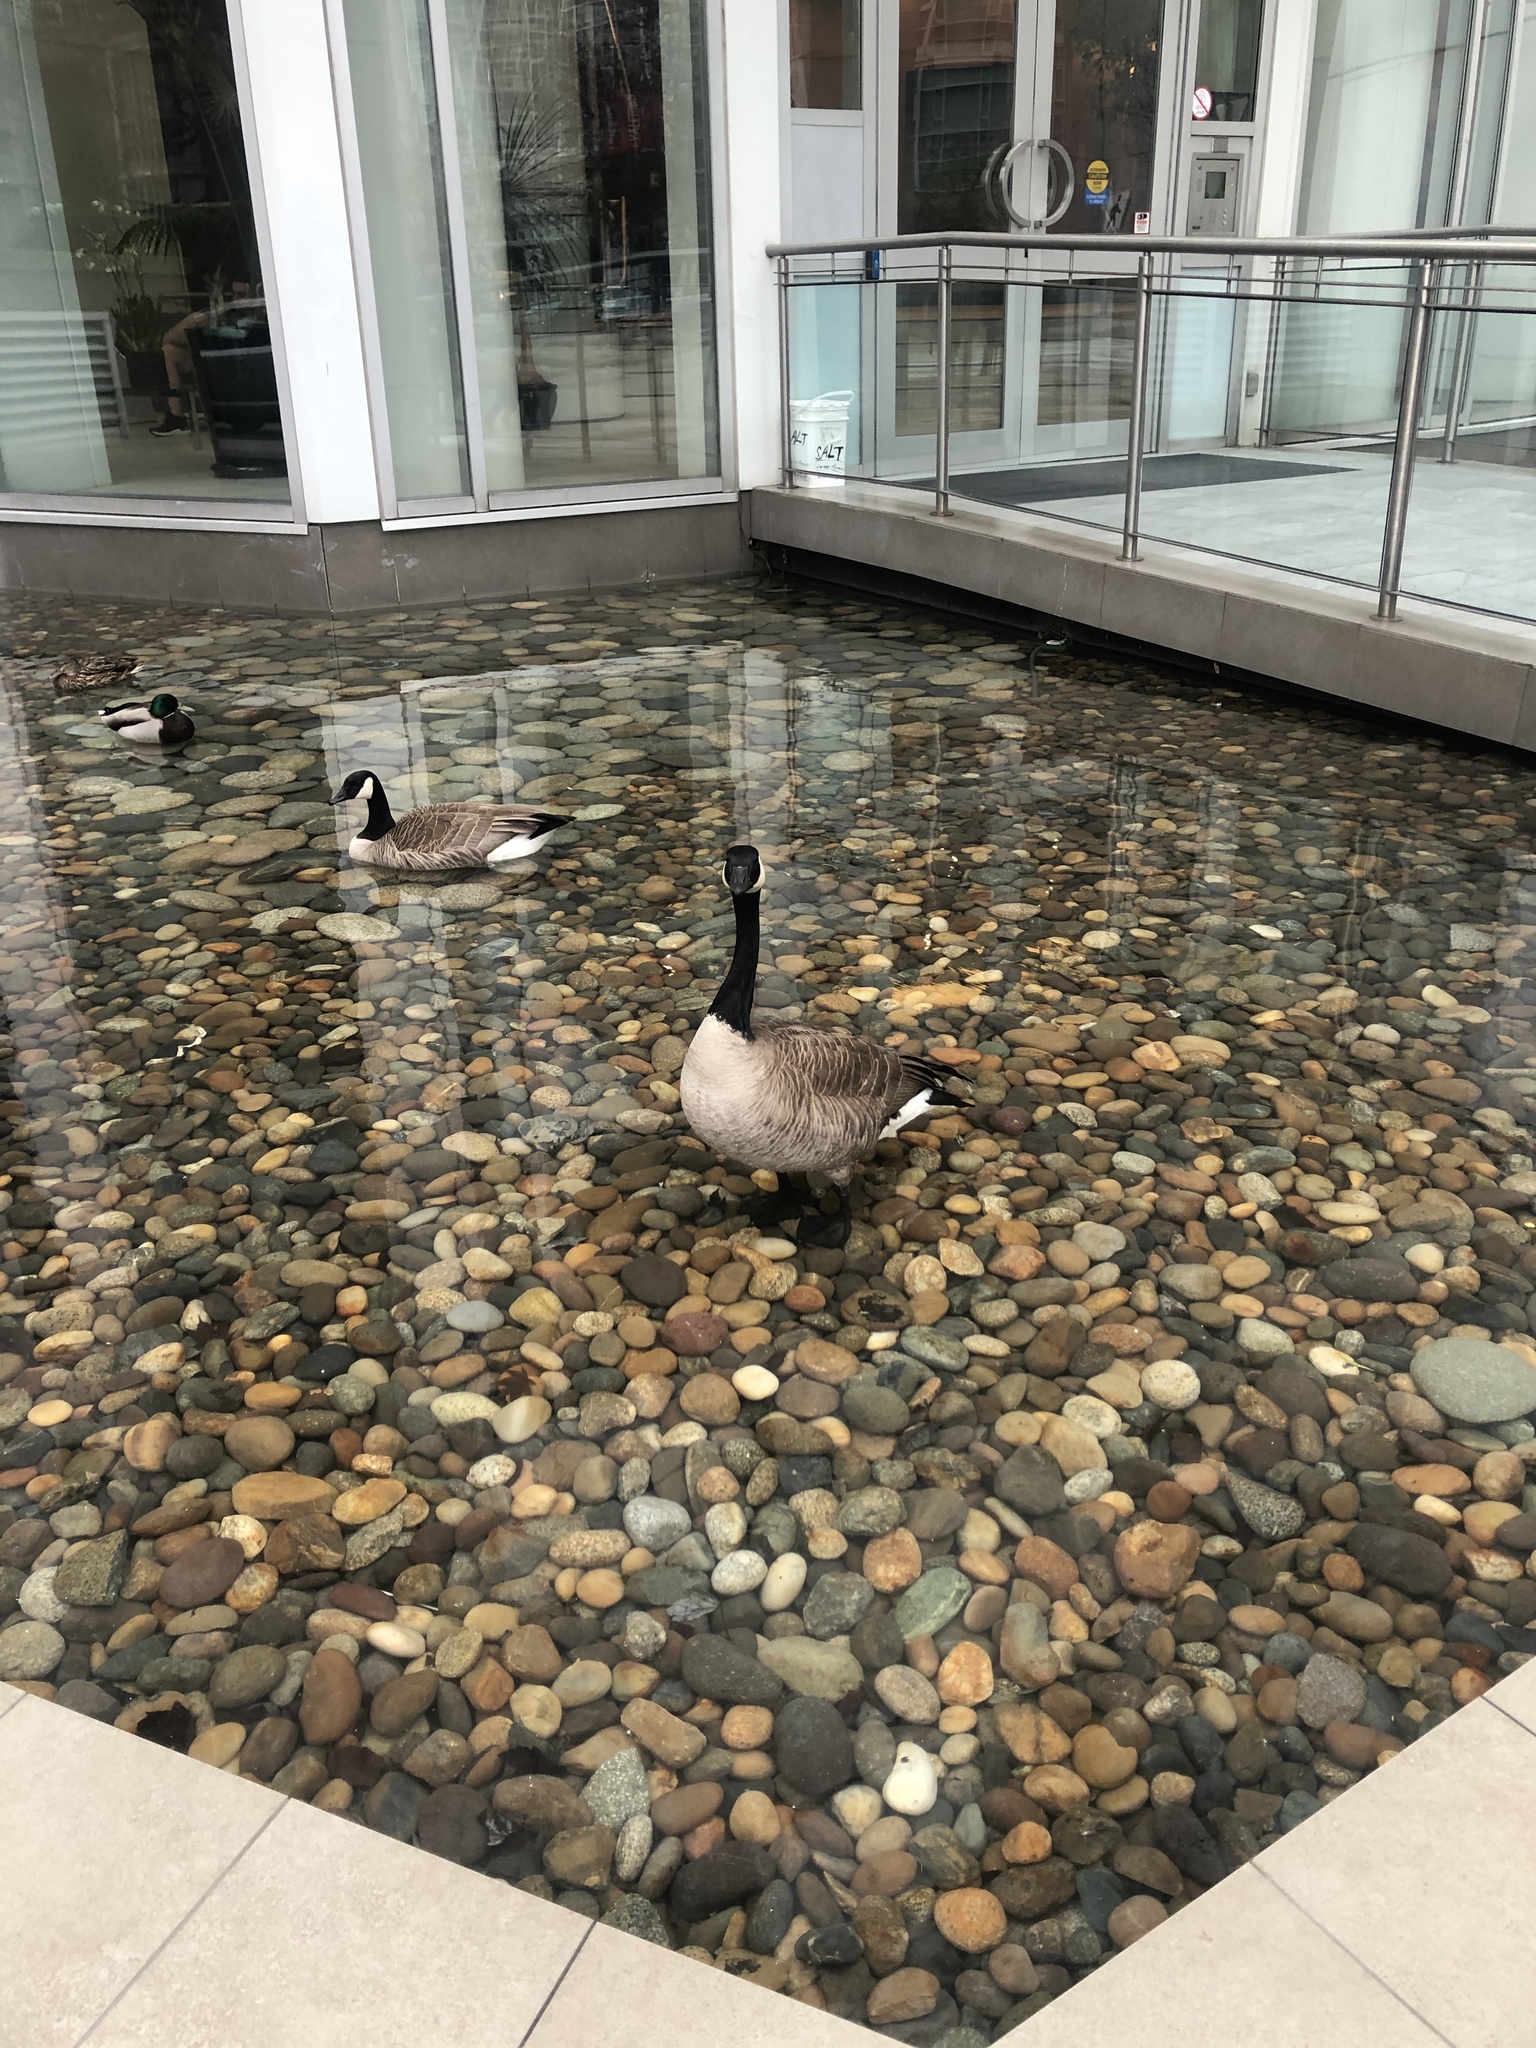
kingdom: Animalia
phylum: Chordata
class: Aves
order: Anseriformes
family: Anatidae
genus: Branta
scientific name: Branta canadensis
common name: Canada goose
